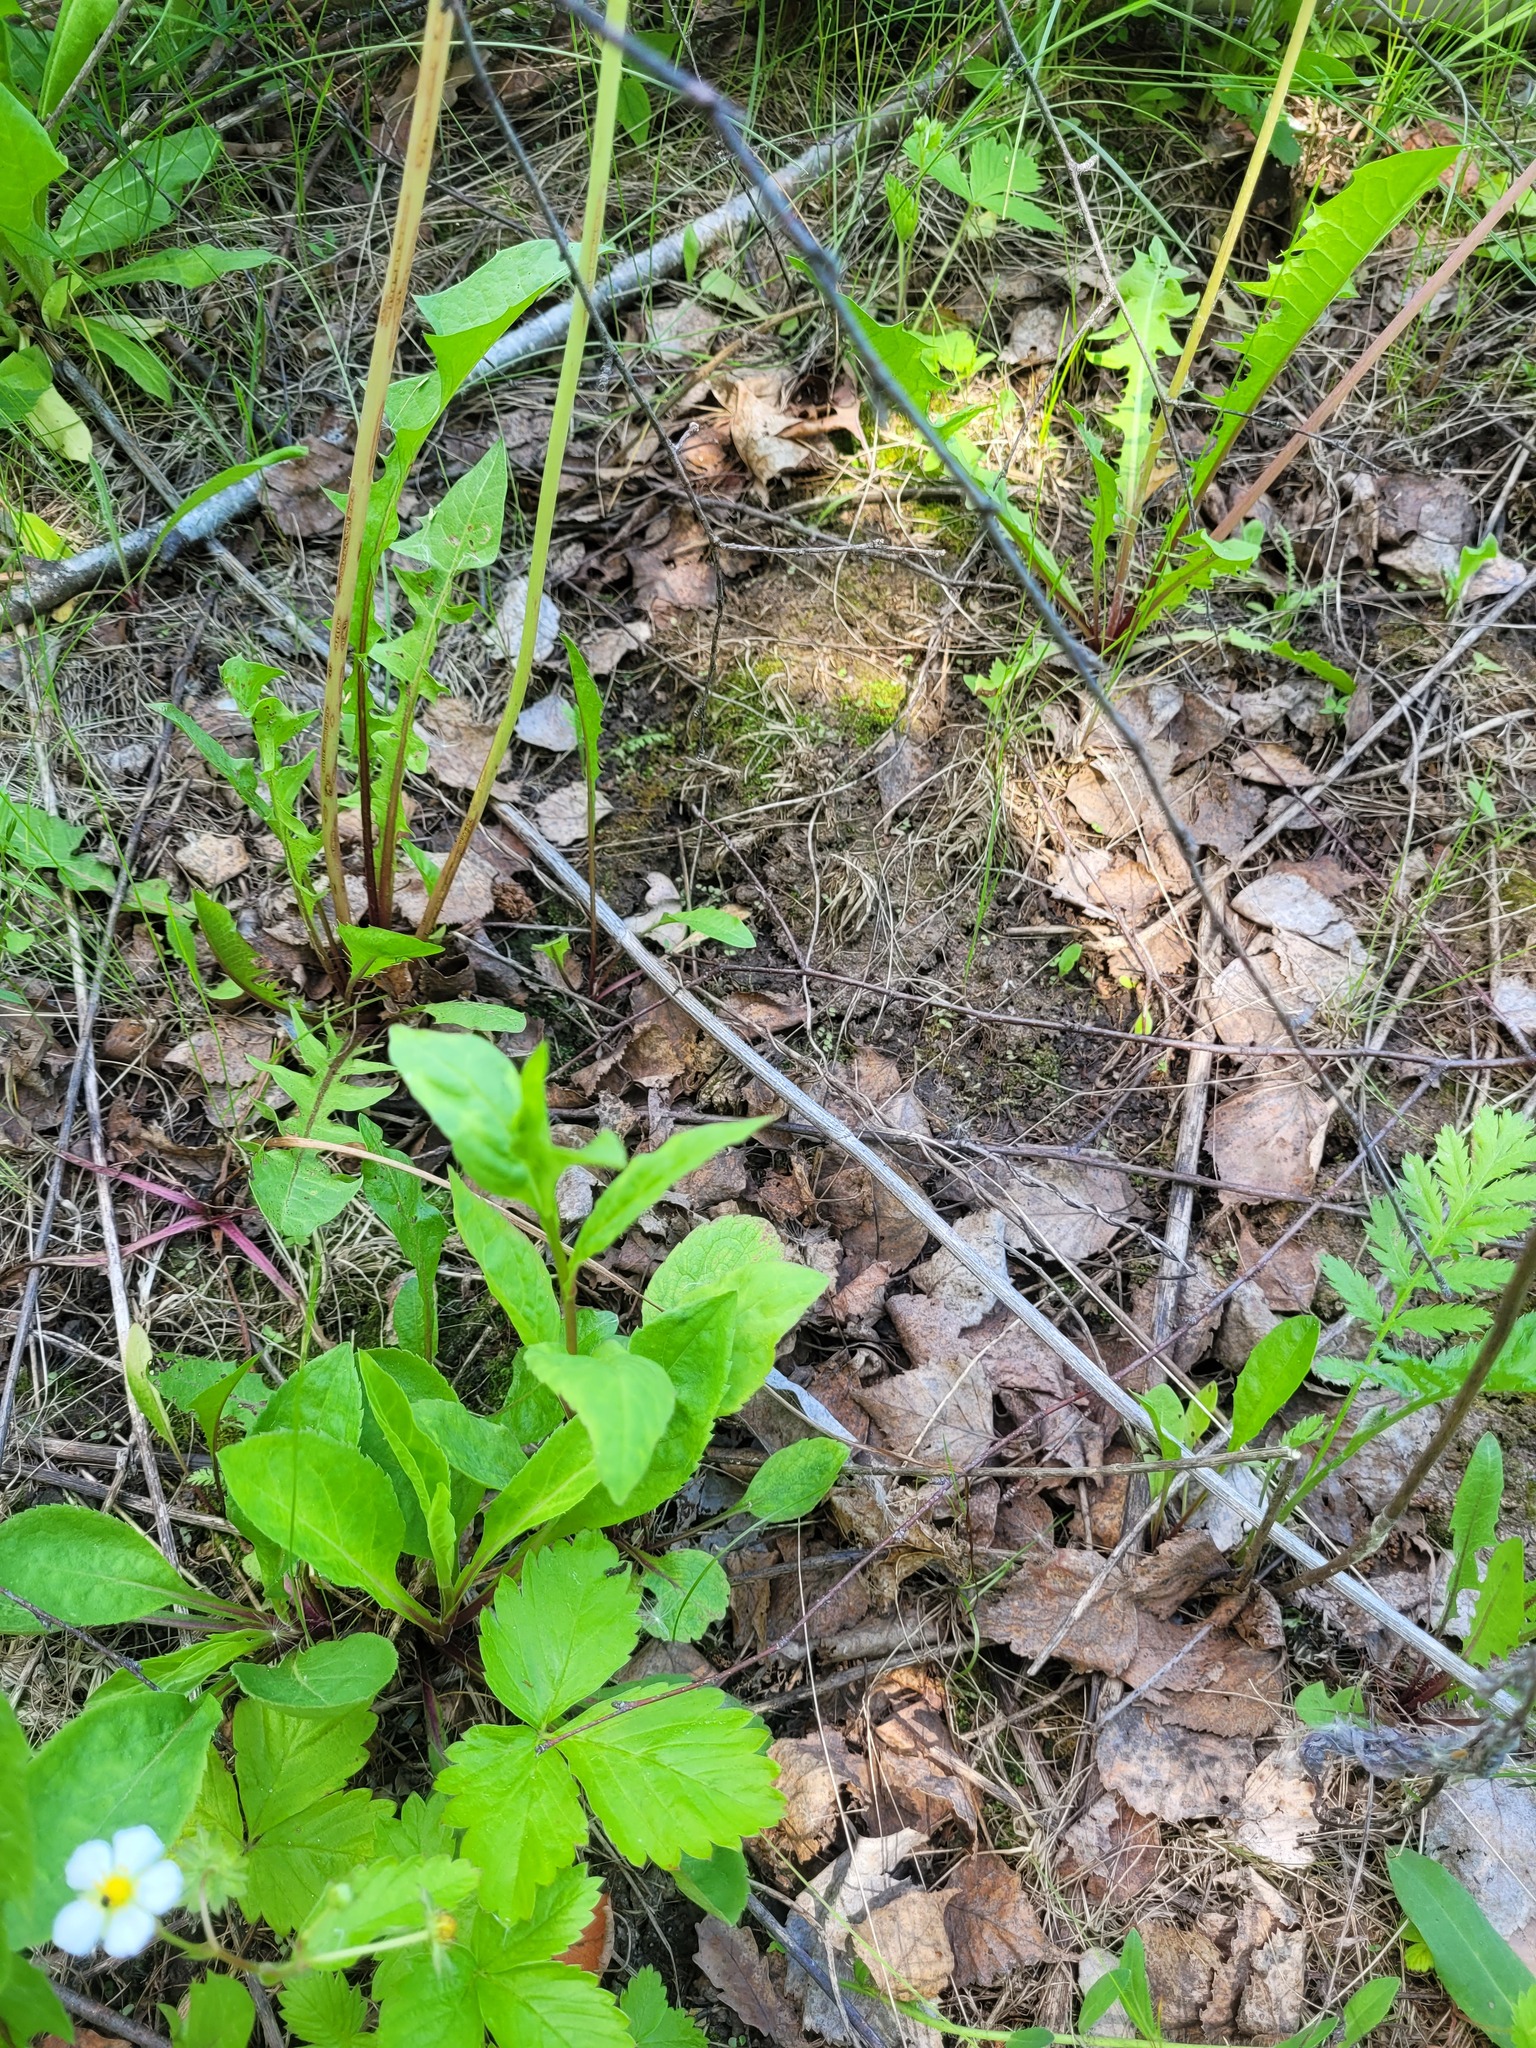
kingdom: Plantae
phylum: Tracheophyta
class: Magnoliopsida
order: Asterales
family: Asteraceae
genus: Solidago
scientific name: Solidago virgaurea
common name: Goldenrod
